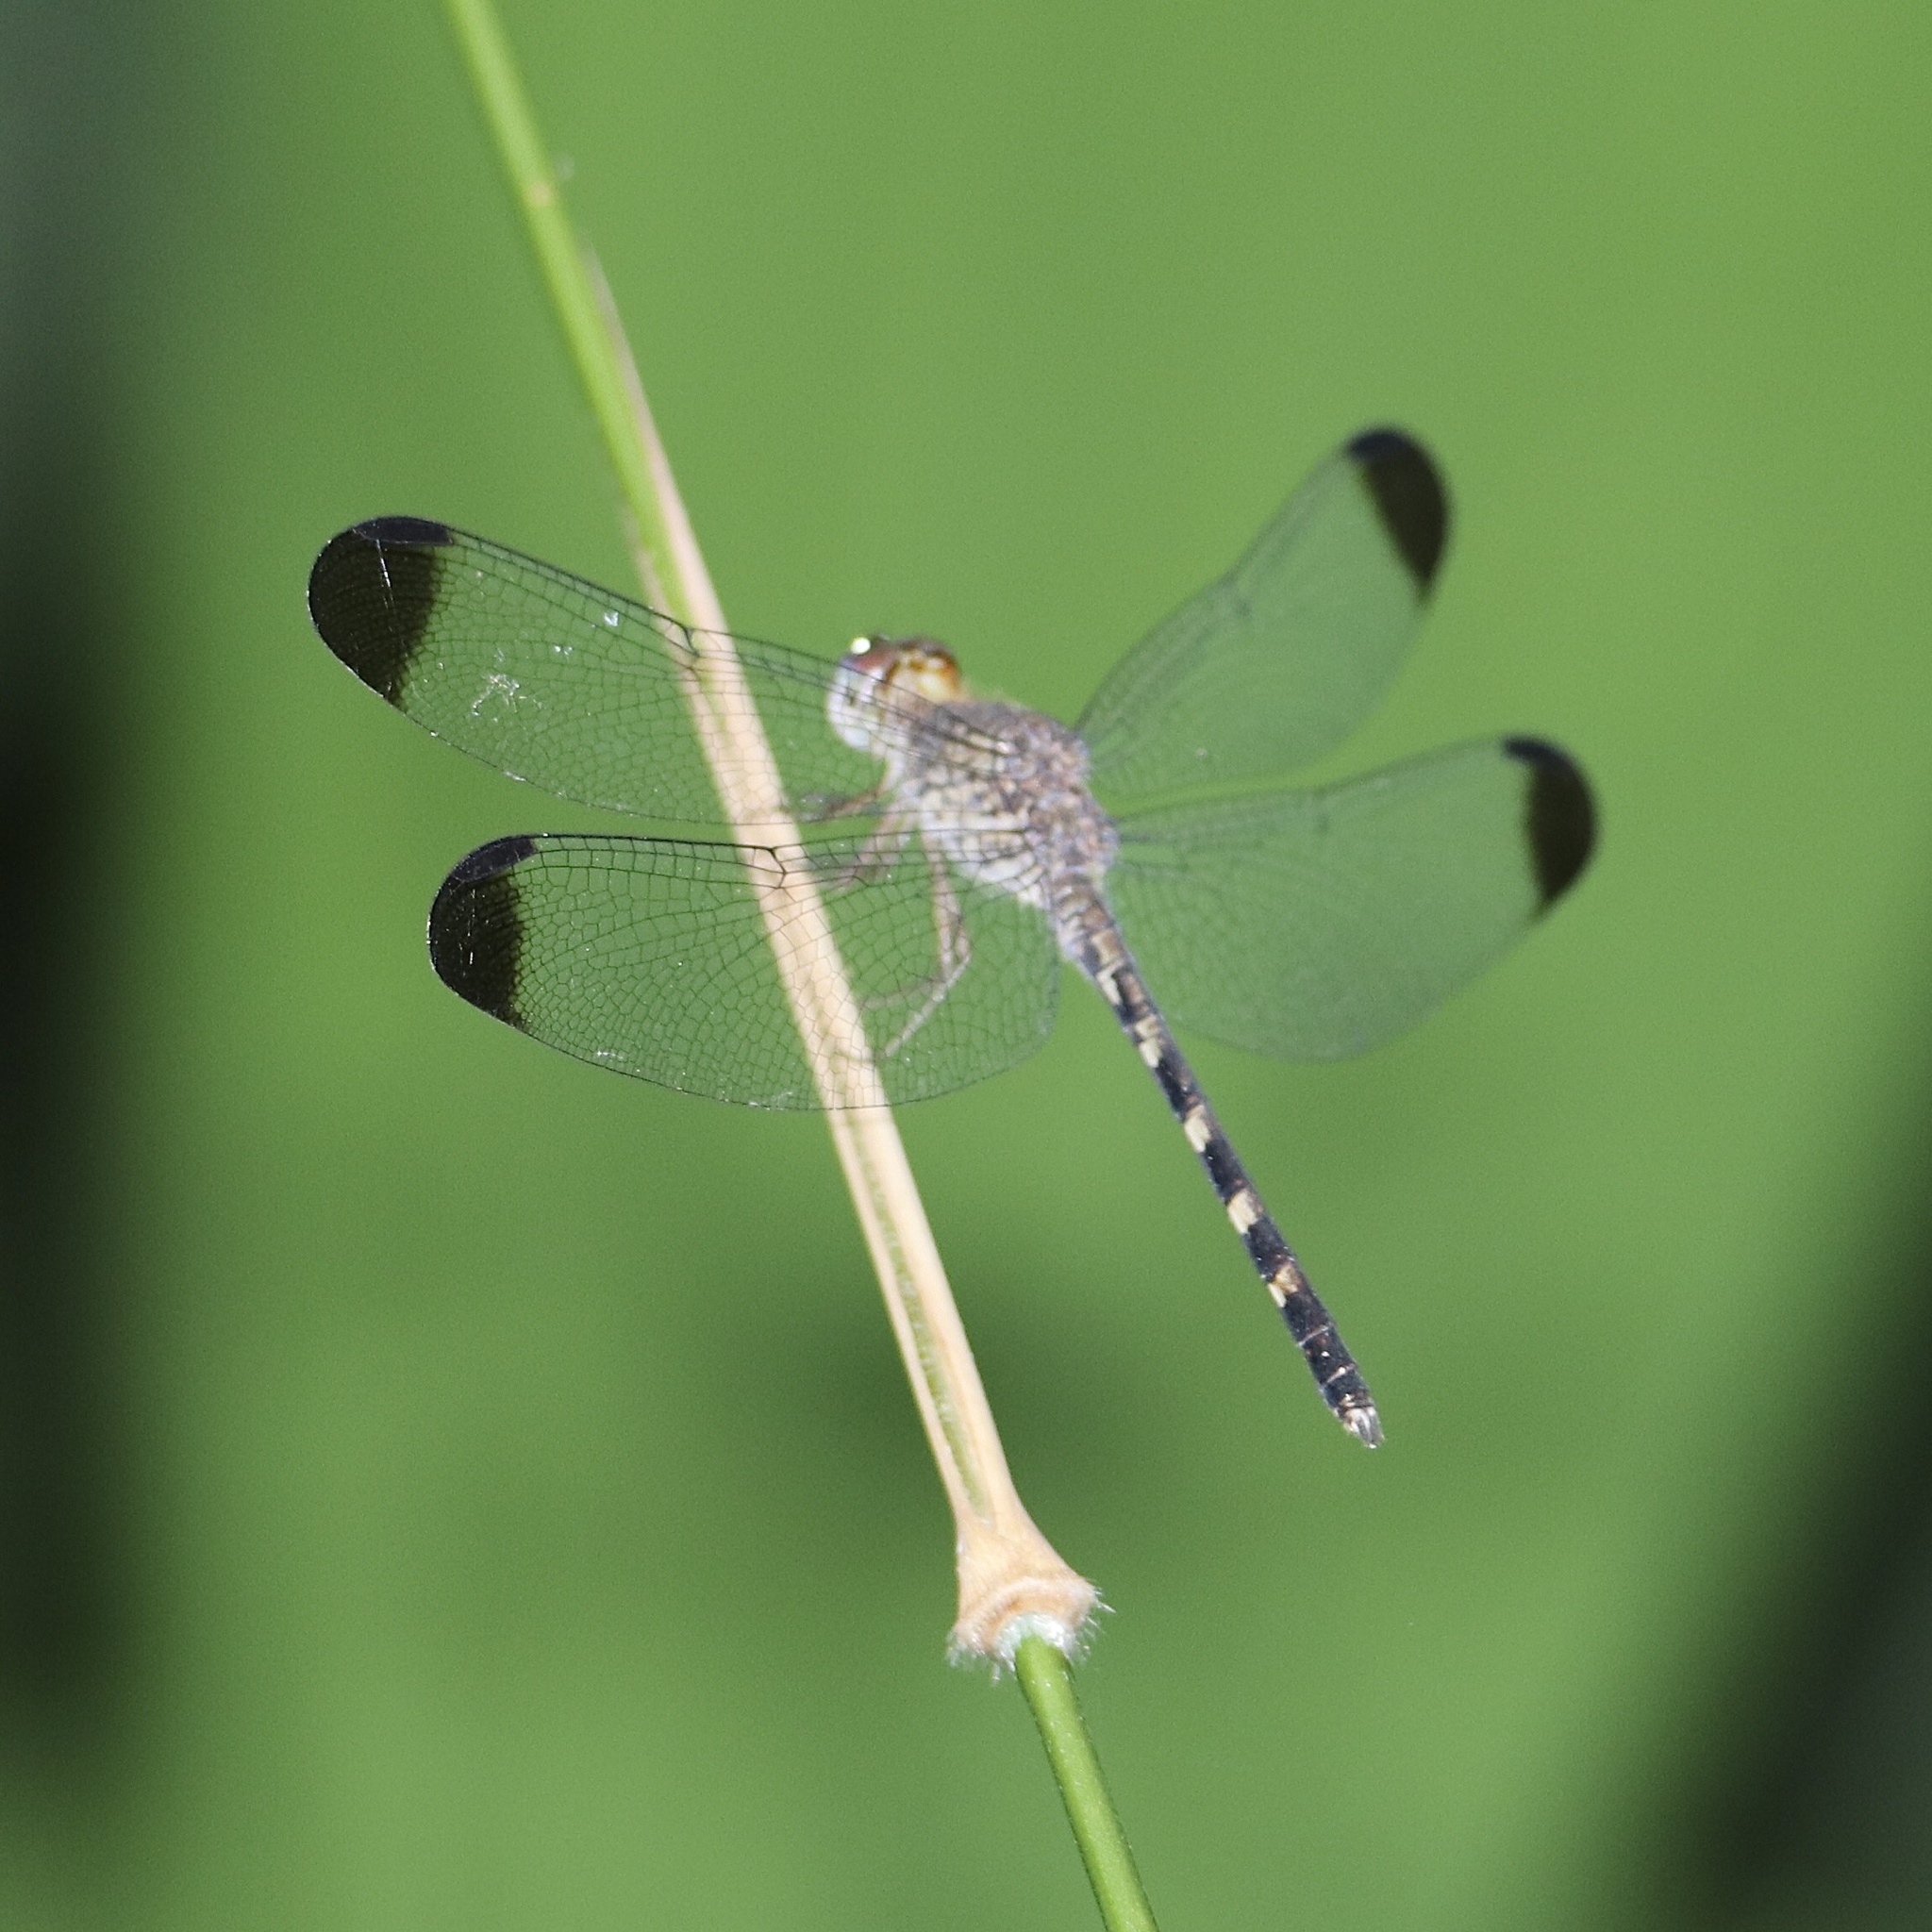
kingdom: Animalia
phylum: Arthropoda
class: Insecta
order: Odonata
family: Libellulidae
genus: Uracis
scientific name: Uracis imbuta
